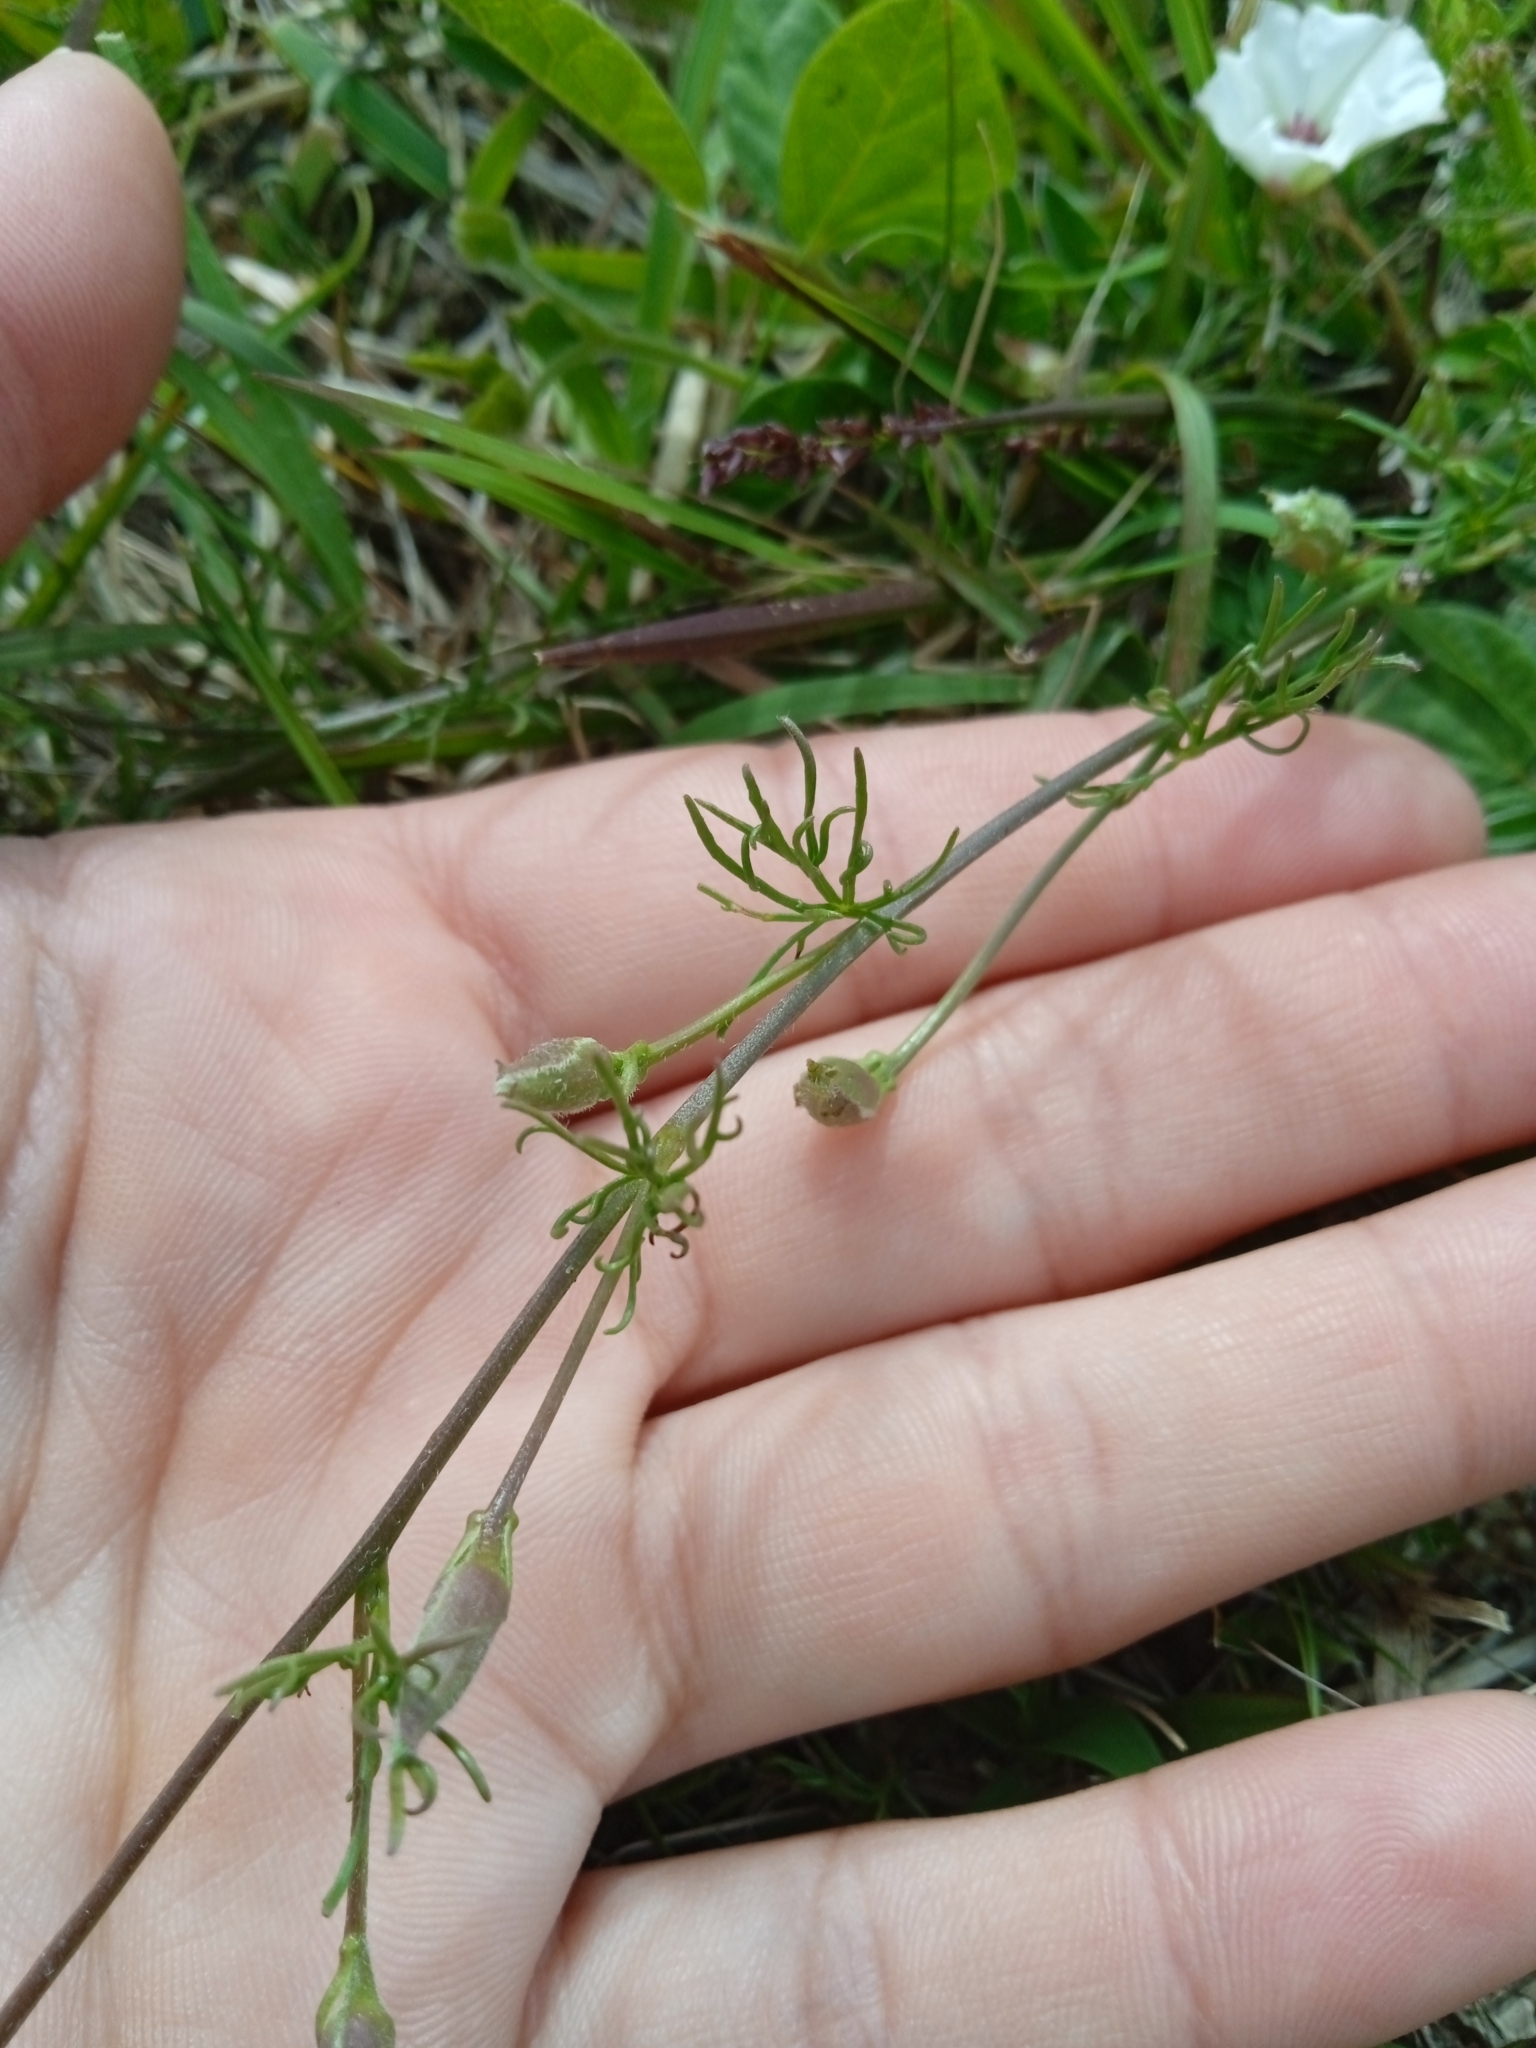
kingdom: Plantae
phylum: Tracheophyta
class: Magnoliopsida
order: Solanales
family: Convolvulaceae
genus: Convolvulus
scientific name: Convolvulus laciniatus
